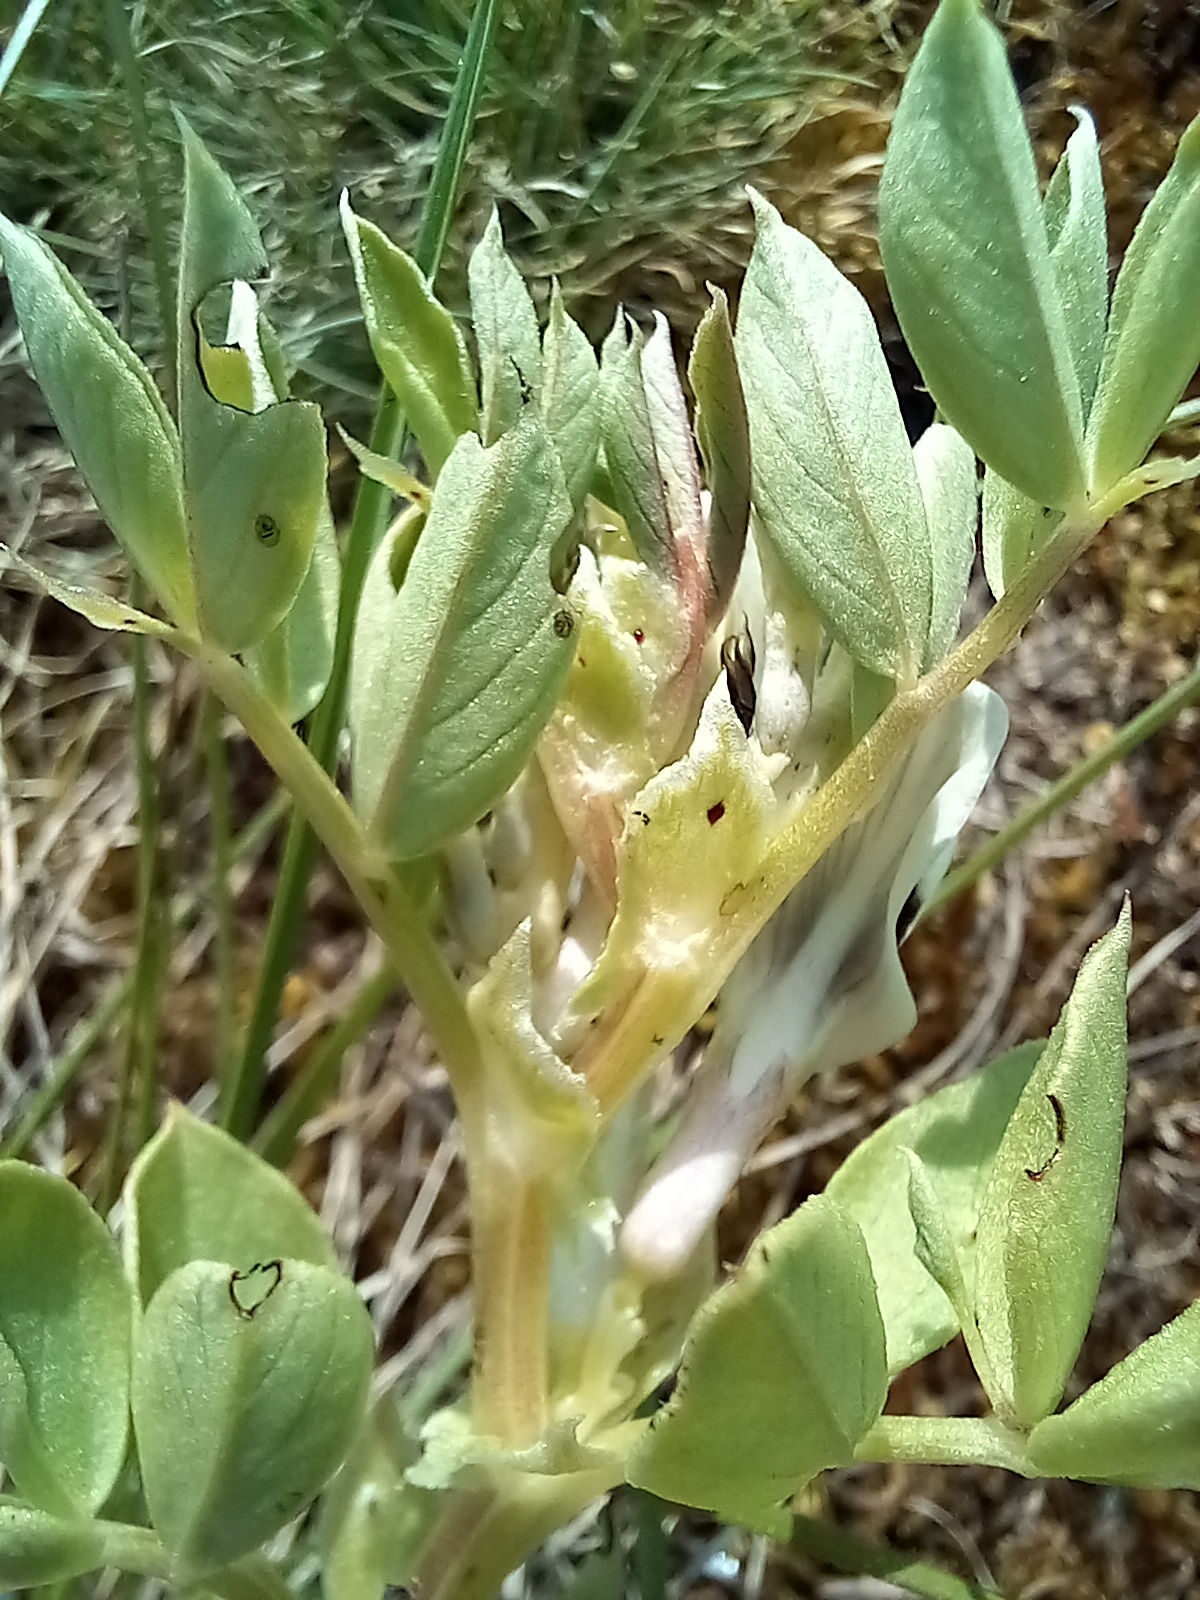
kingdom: Plantae
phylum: Tracheophyta
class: Magnoliopsida
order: Fabales
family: Fabaceae
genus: Vicia
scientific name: Vicia faba
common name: Broad bean
